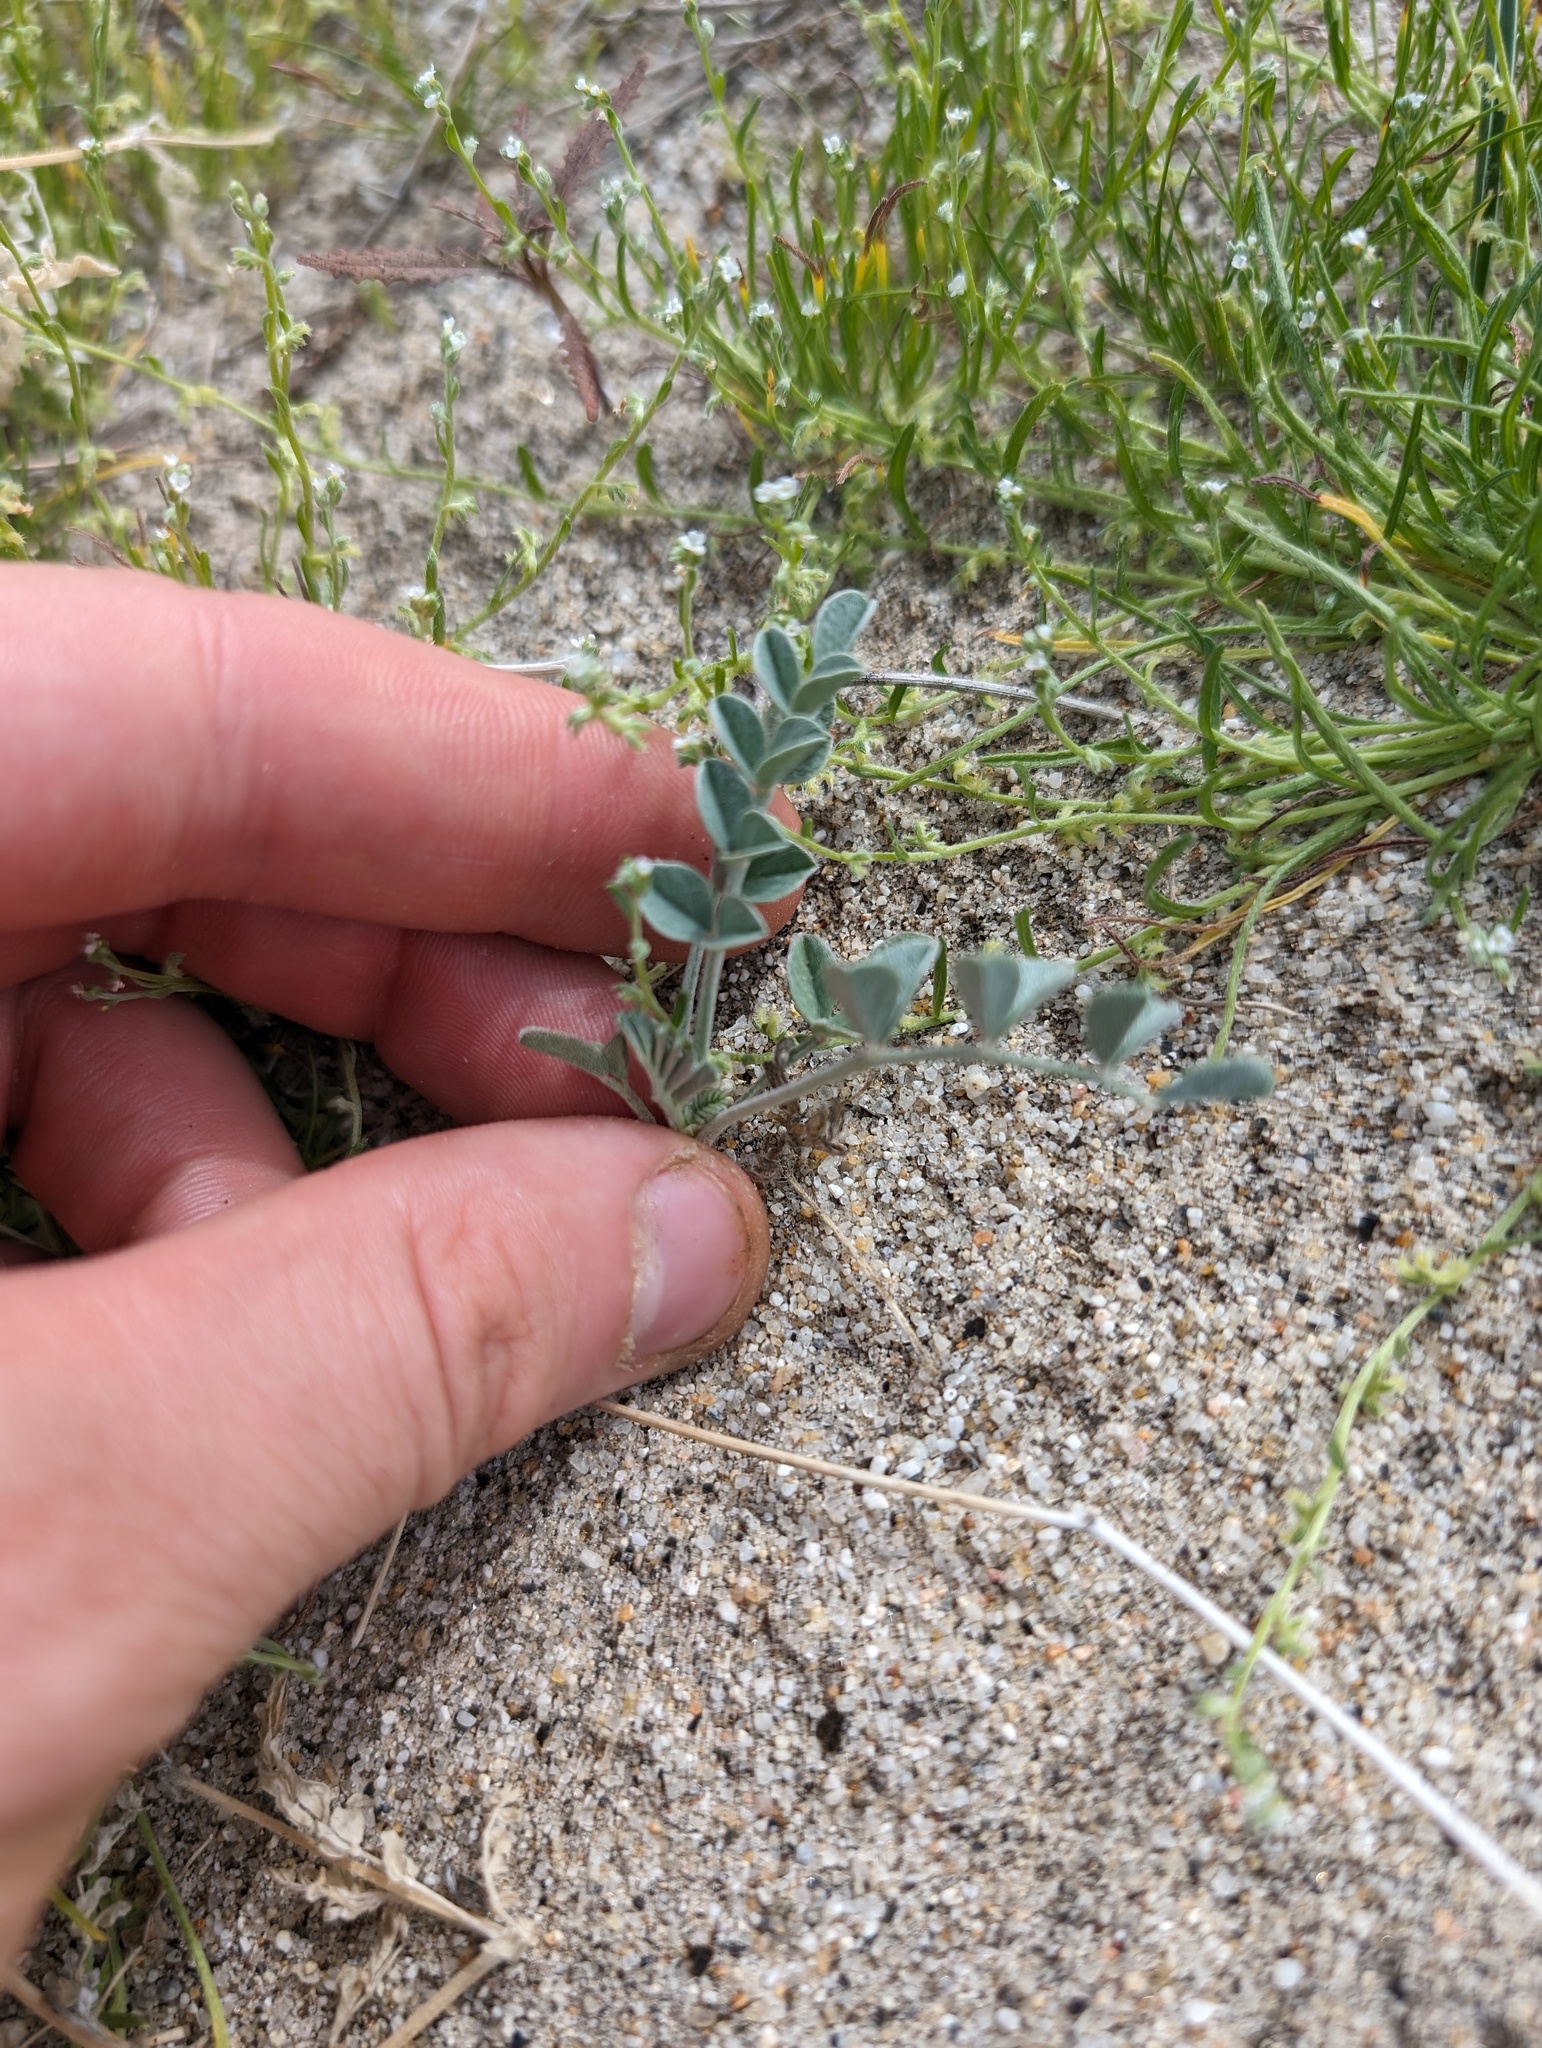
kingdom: Plantae
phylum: Tracheophyta
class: Magnoliopsida
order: Fabales
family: Fabaceae
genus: Astragalus
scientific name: Astragalus lentiginosus
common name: Freckled milkvetch
